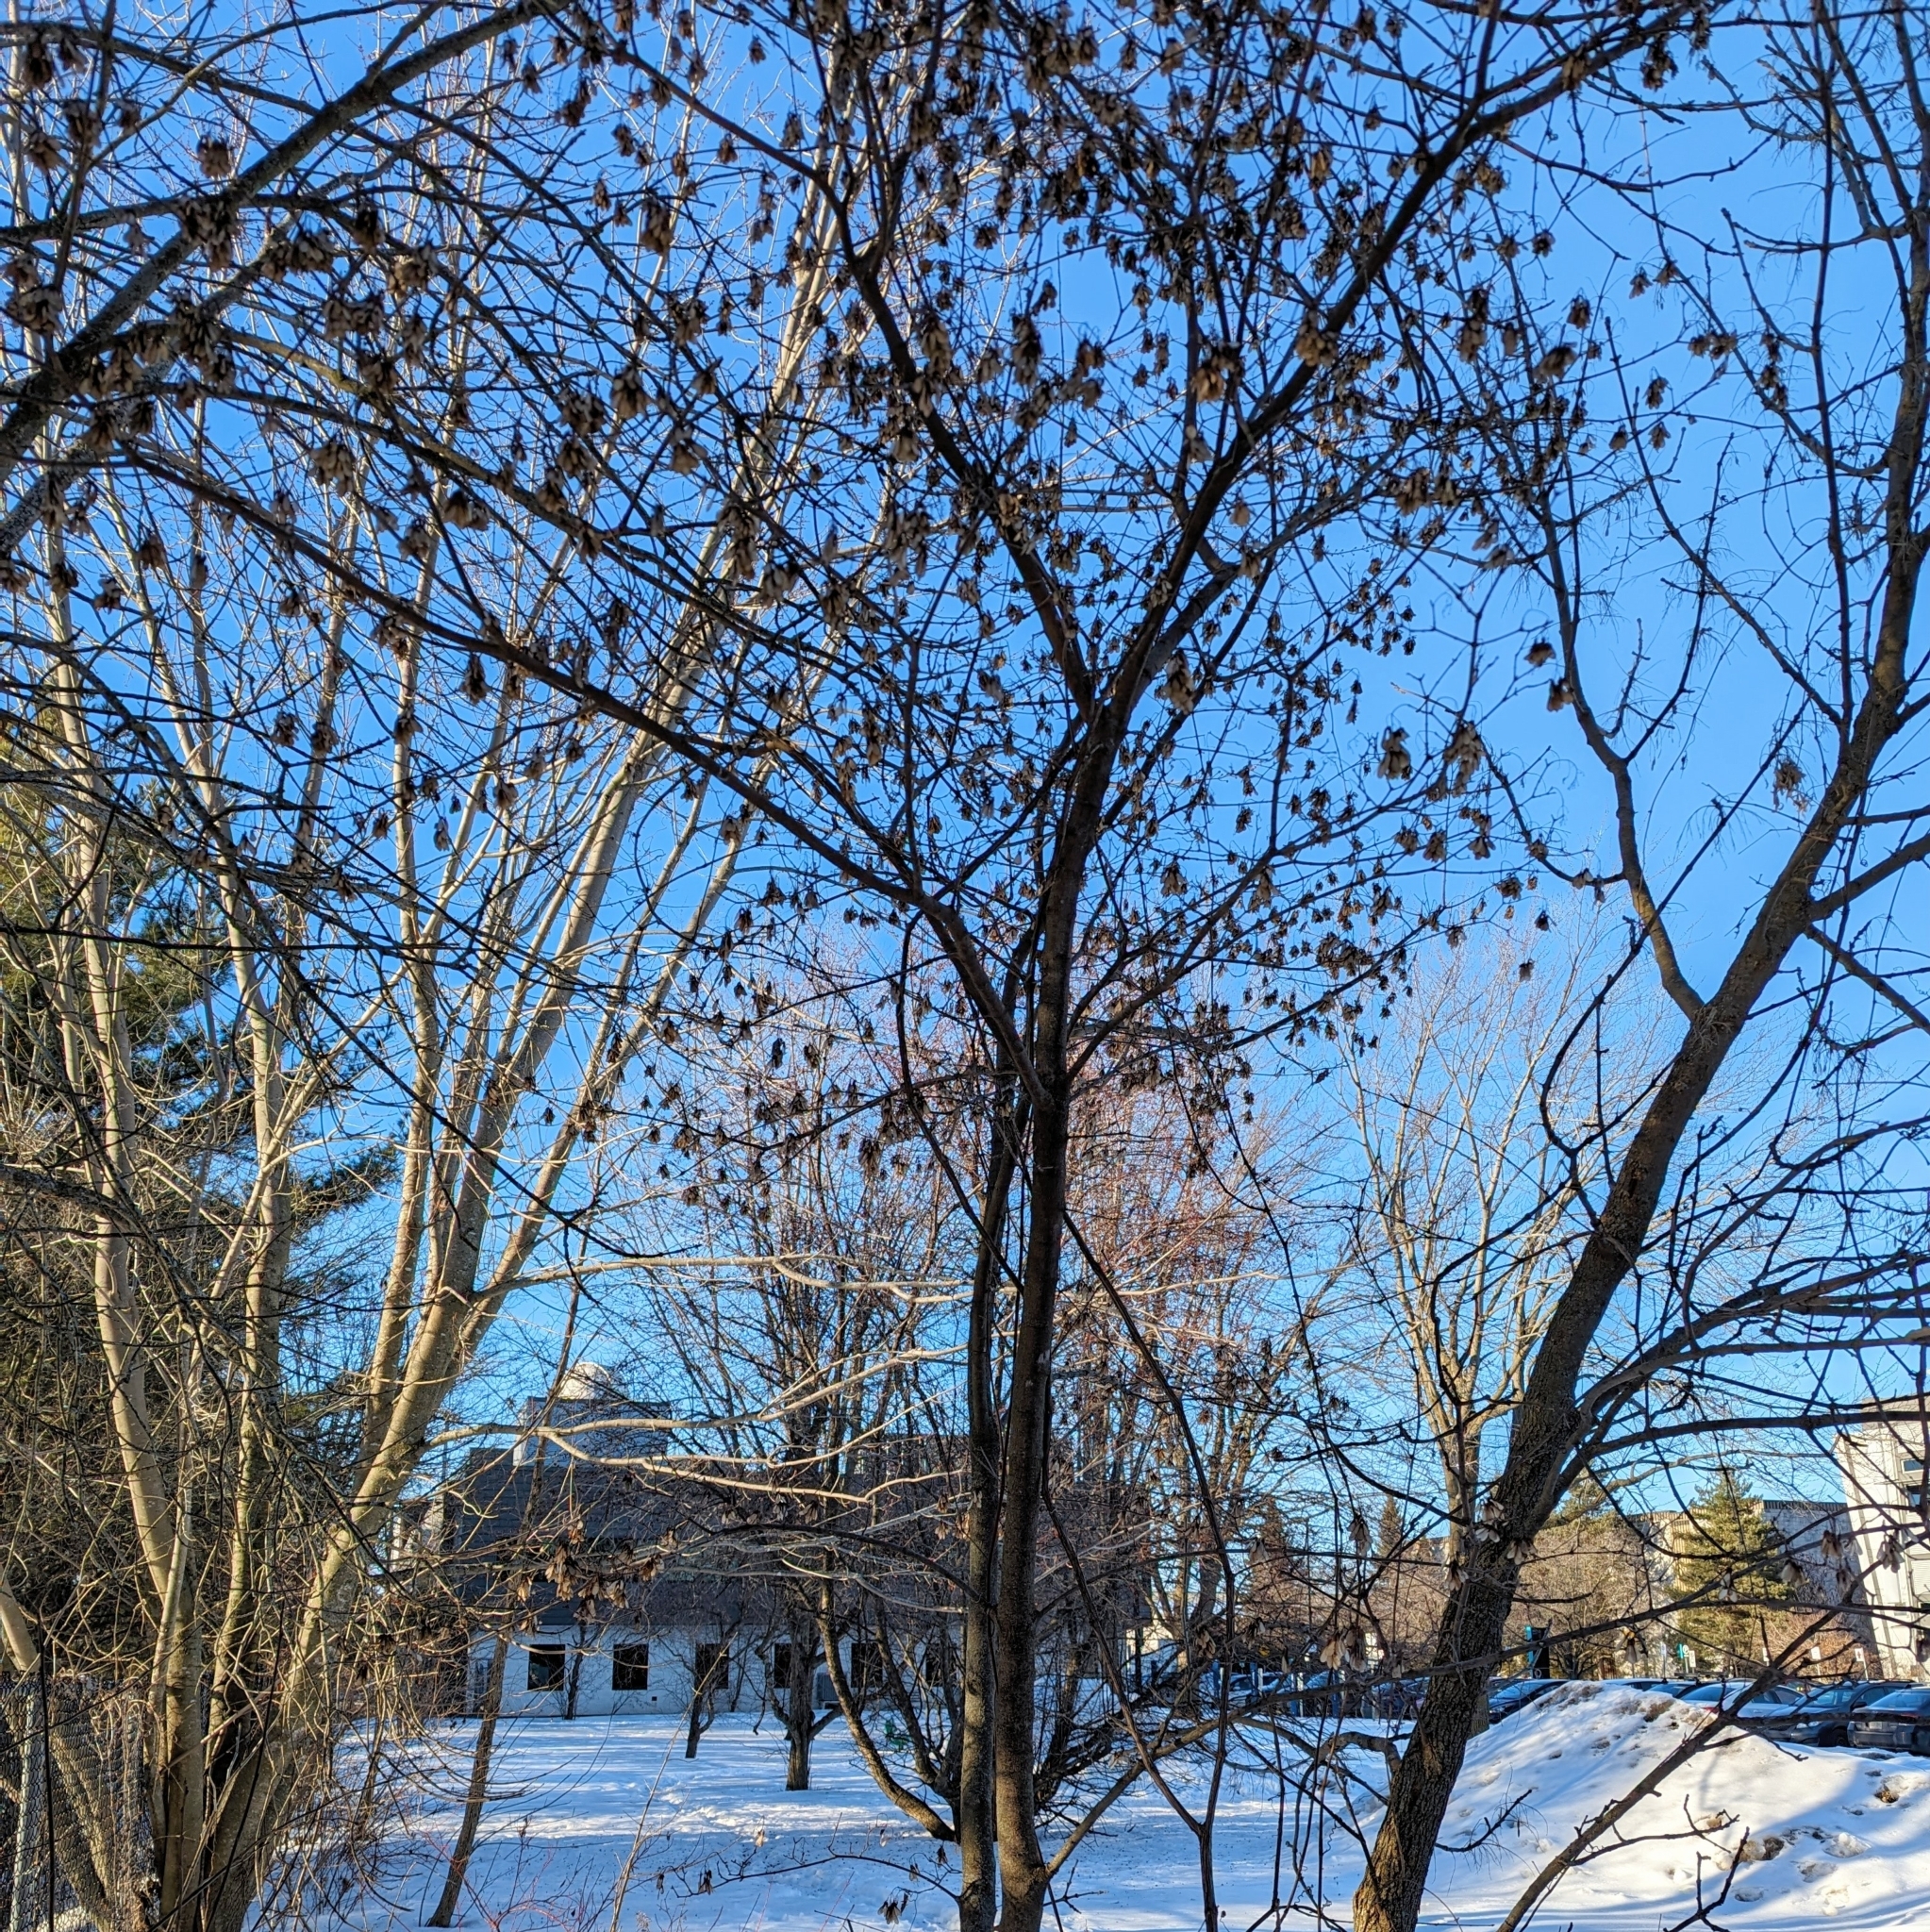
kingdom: Plantae
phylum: Tracheophyta
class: Magnoliopsida
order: Sapindales
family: Sapindaceae
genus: Acer
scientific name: Acer tataricum
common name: Tartar maple
